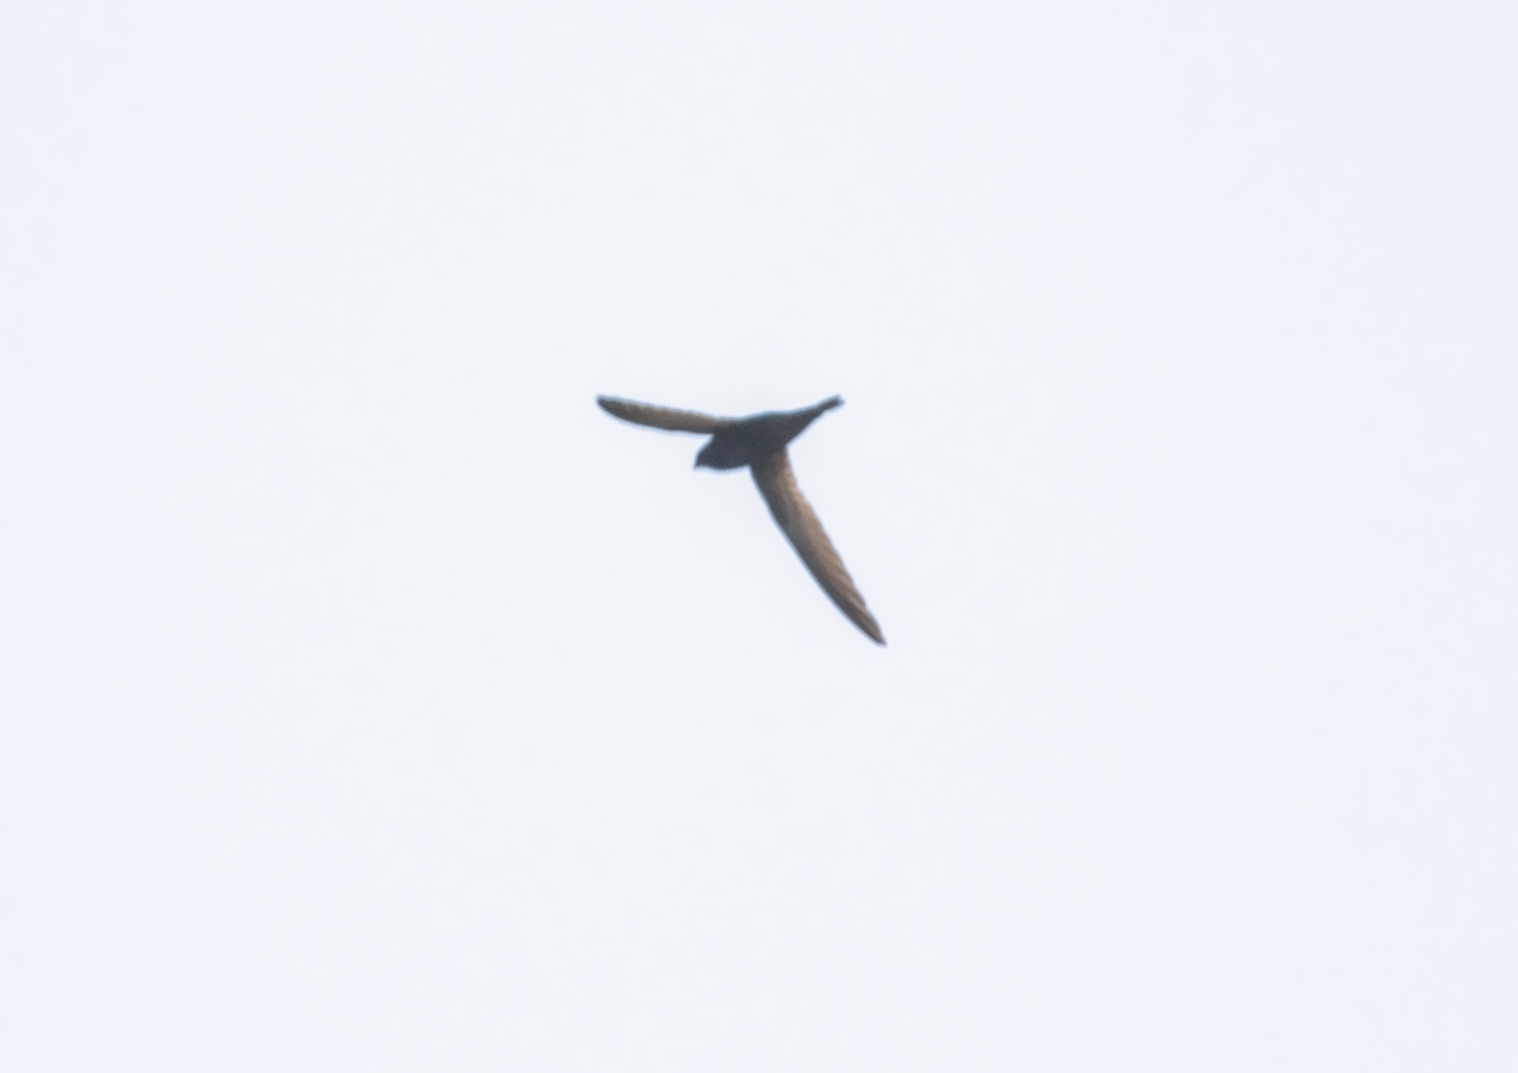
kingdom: Animalia
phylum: Chordata
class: Aves
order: Apodiformes
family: Apodidae
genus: Apus
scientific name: Apus apus
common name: Common swift
